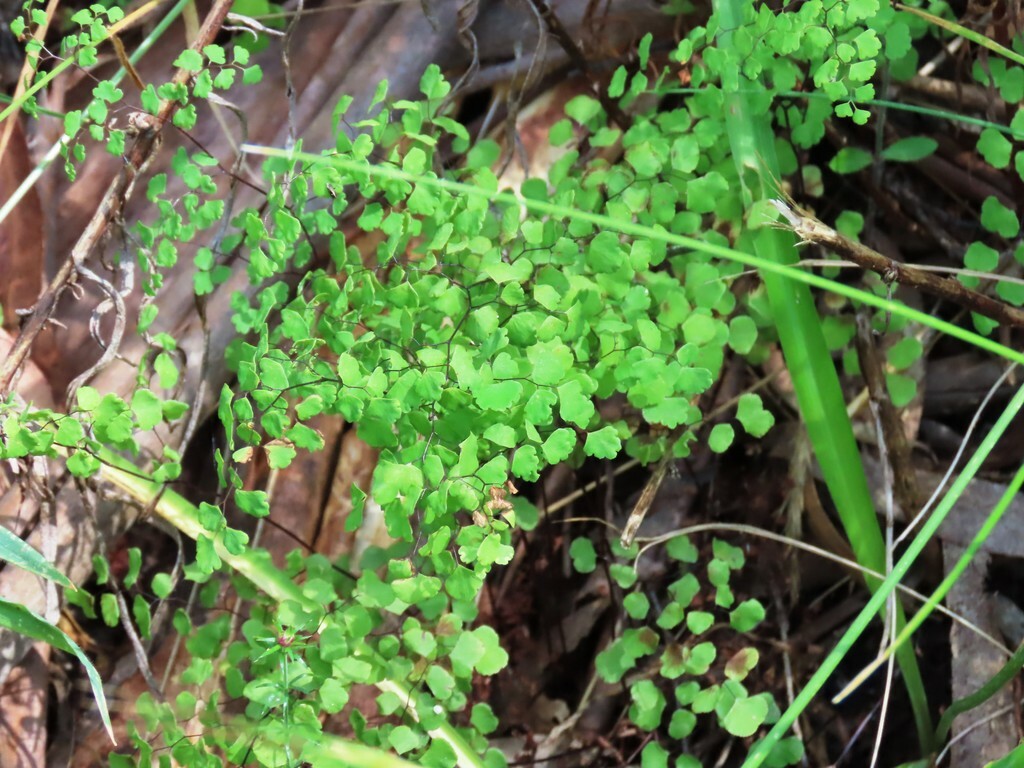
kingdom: Plantae
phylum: Tracheophyta
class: Polypodiopsida
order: Polypodiales
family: Pteridaceae
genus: Adiantum
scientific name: Adiantum aethiopicum
